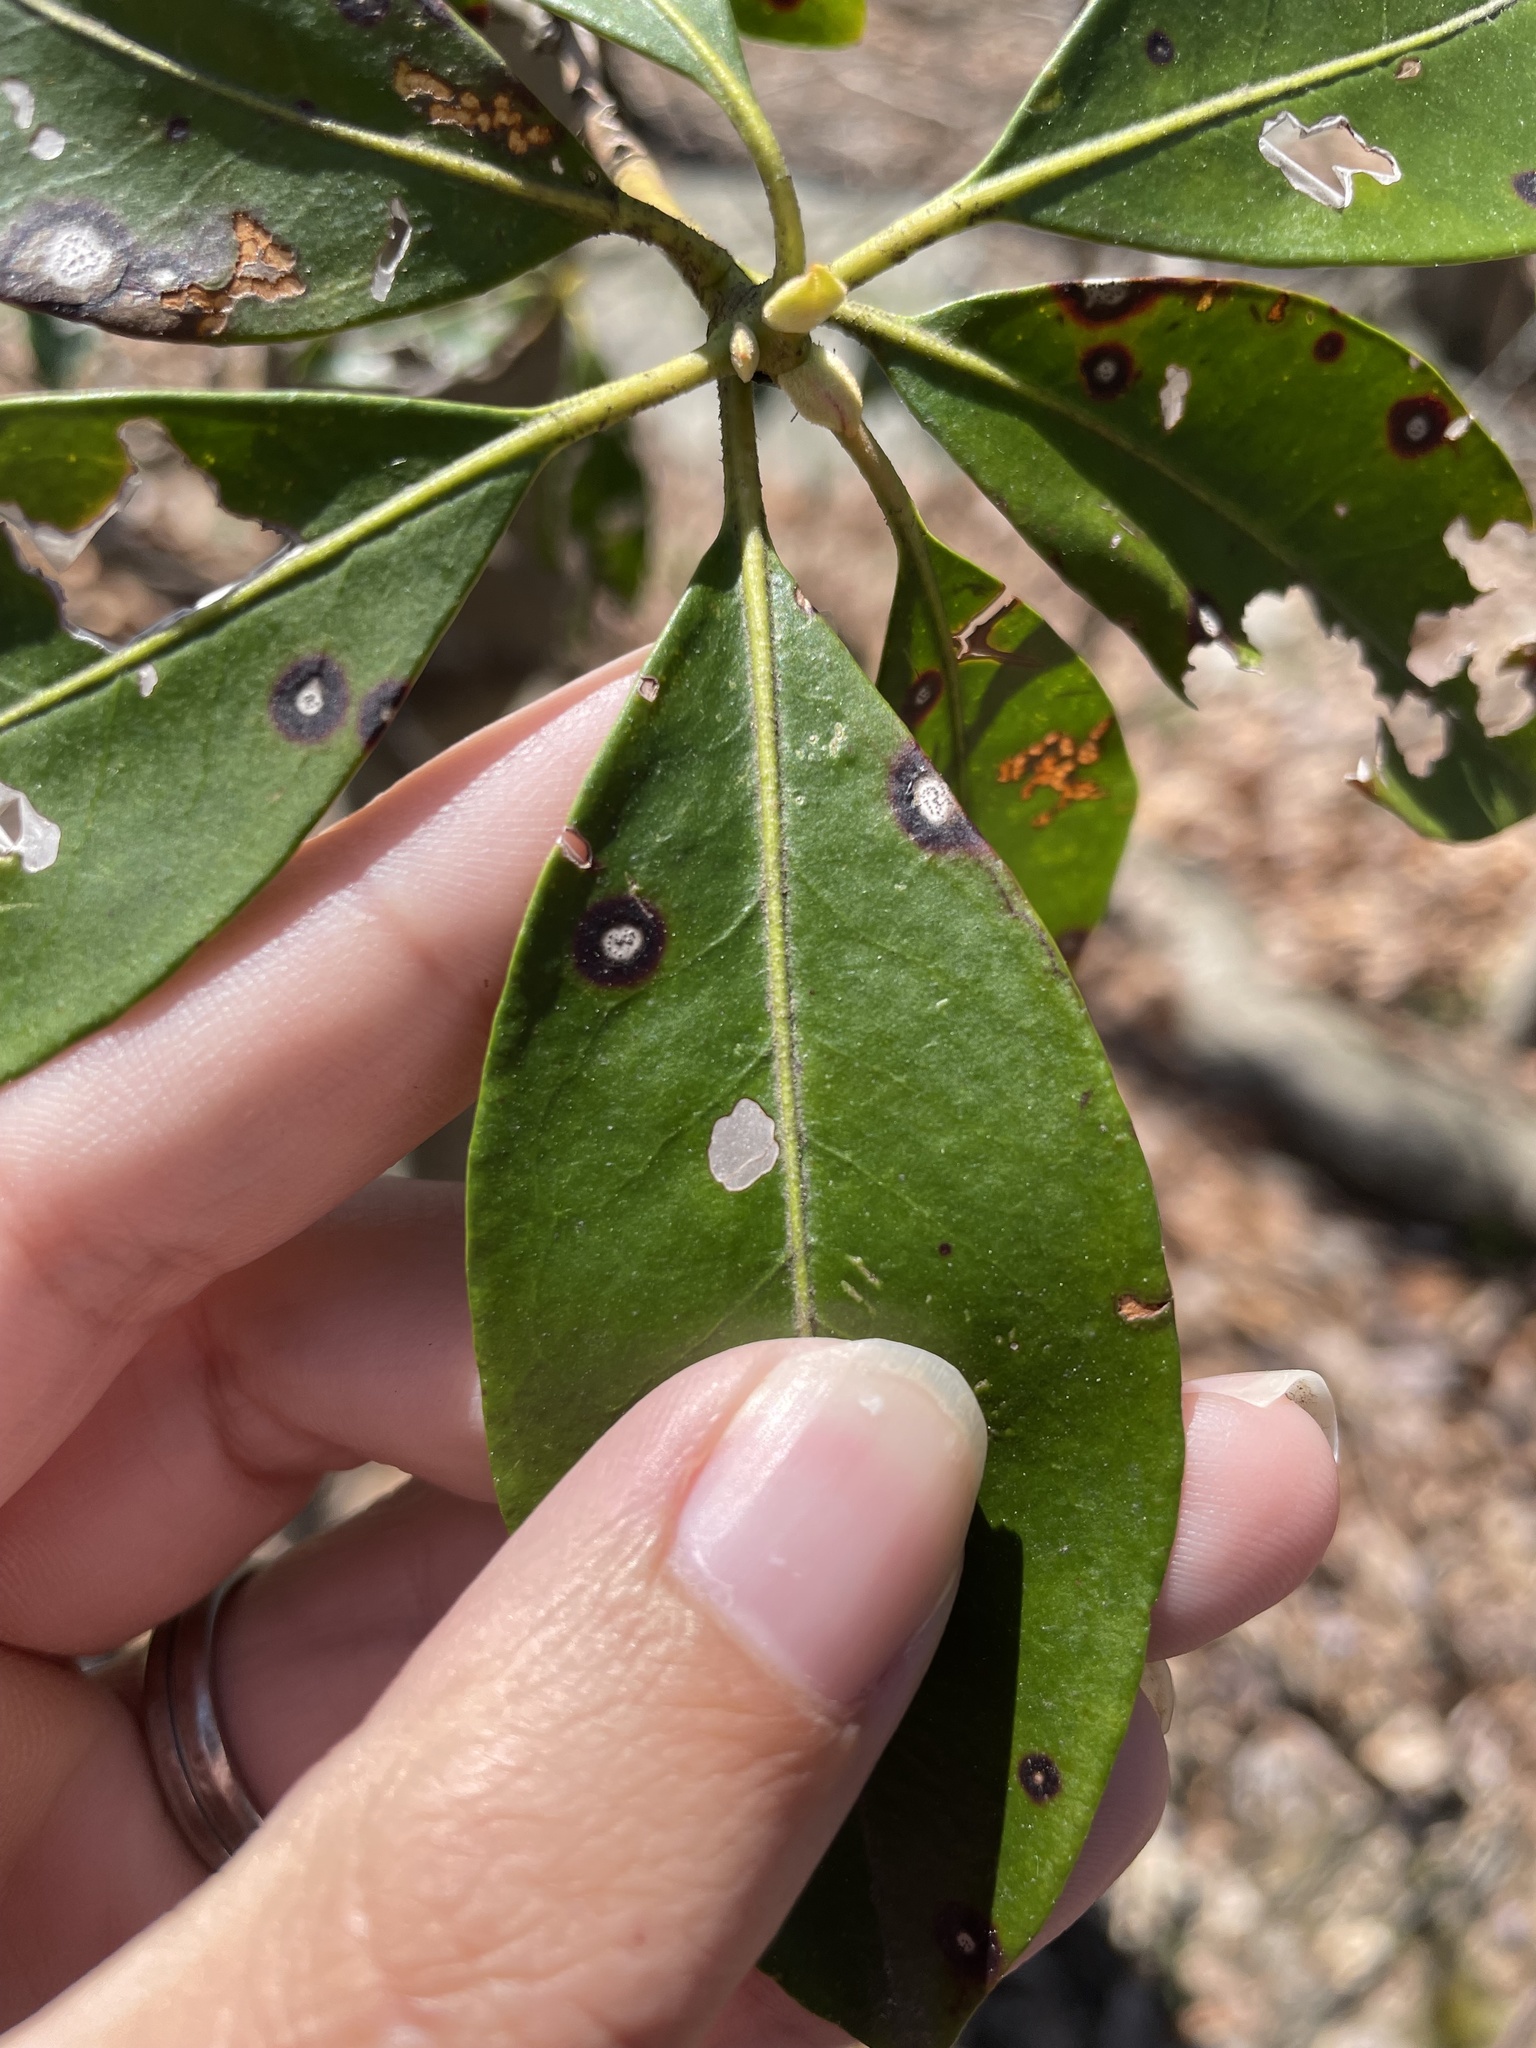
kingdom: Fungi
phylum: Ascomycota
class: Dothideomycetes
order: Mycosphaerellales
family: Mycosphaerellaceae
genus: Mycosphaerella
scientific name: Mycosphaerella colorata
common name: Mountain laurel leaf spot
